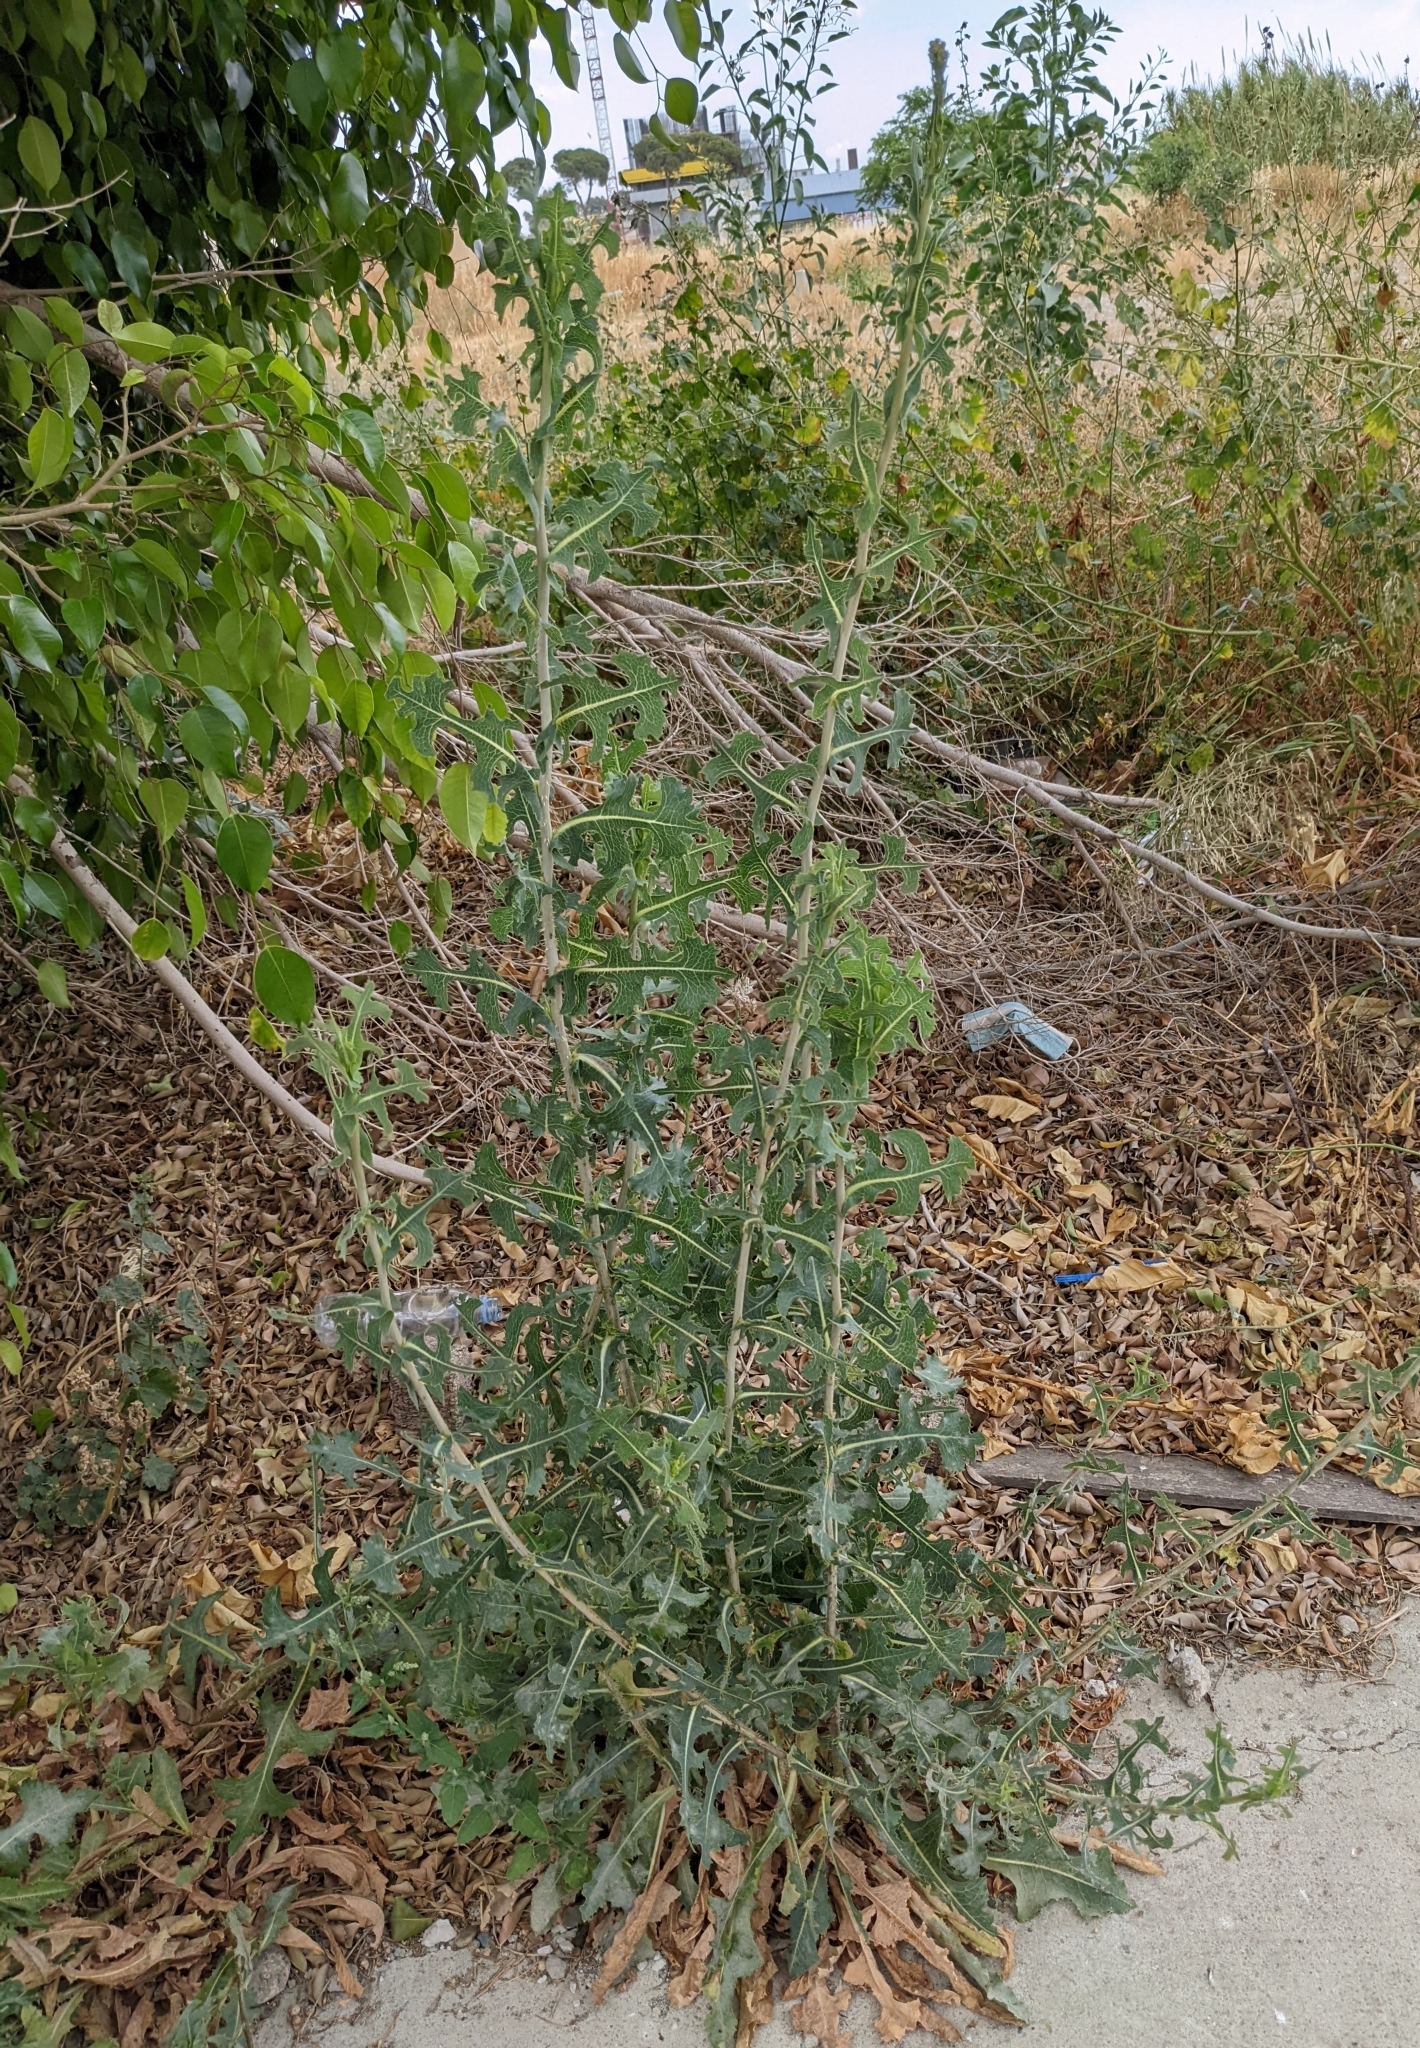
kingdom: Plantae
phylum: Tracheophyta
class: Magnoliopsida
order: Asterales
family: Asteraceae
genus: Lactuca
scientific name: Lactuca serriola
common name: Prickly lettuce
